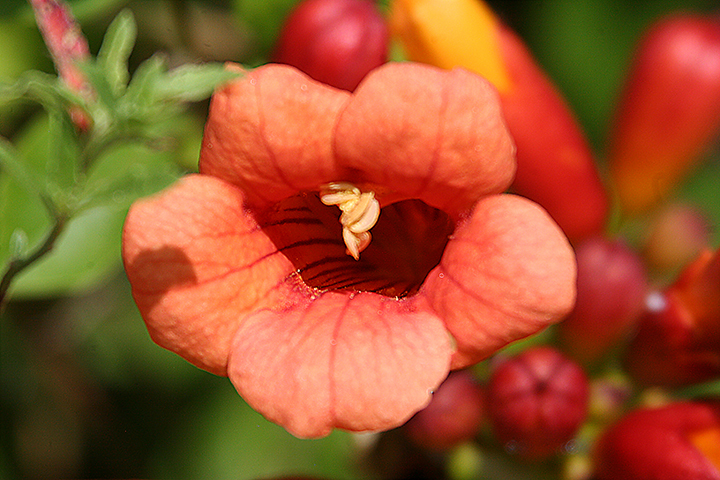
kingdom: Plantae
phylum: Tracheophyta
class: Magnoliopsida
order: Lamiales
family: Bignoniaceae
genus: Campsis
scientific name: Campsis radicans
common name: Trumpet-creeper
